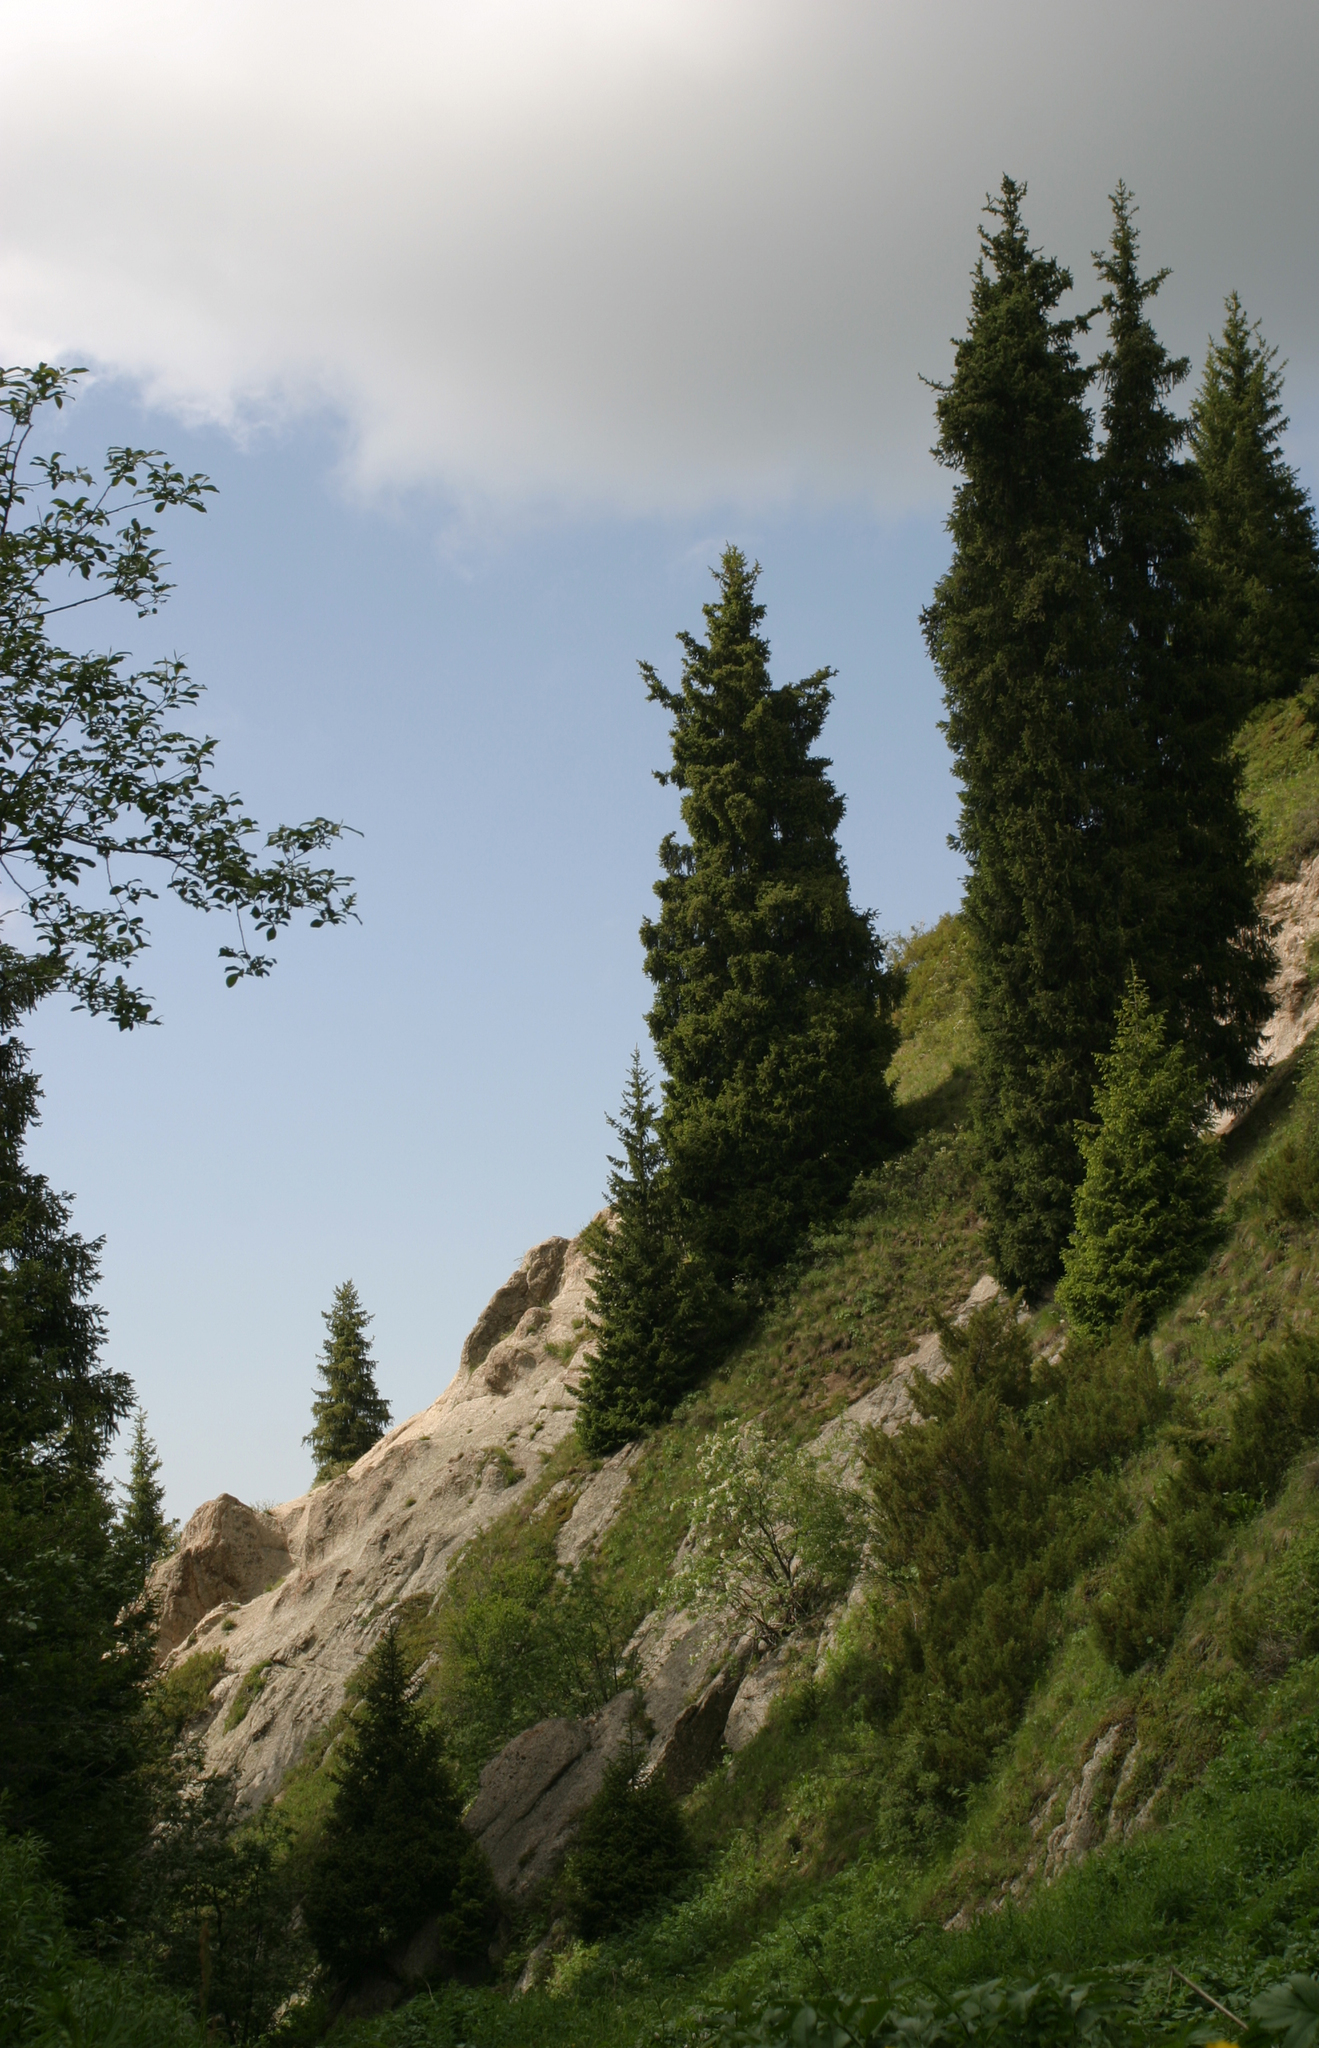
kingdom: Plantae
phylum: Tracheophyta
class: Pinopsida
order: Pinales
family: Pinaceae
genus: Picea
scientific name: Picea schrenkiana
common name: Asian spruce
